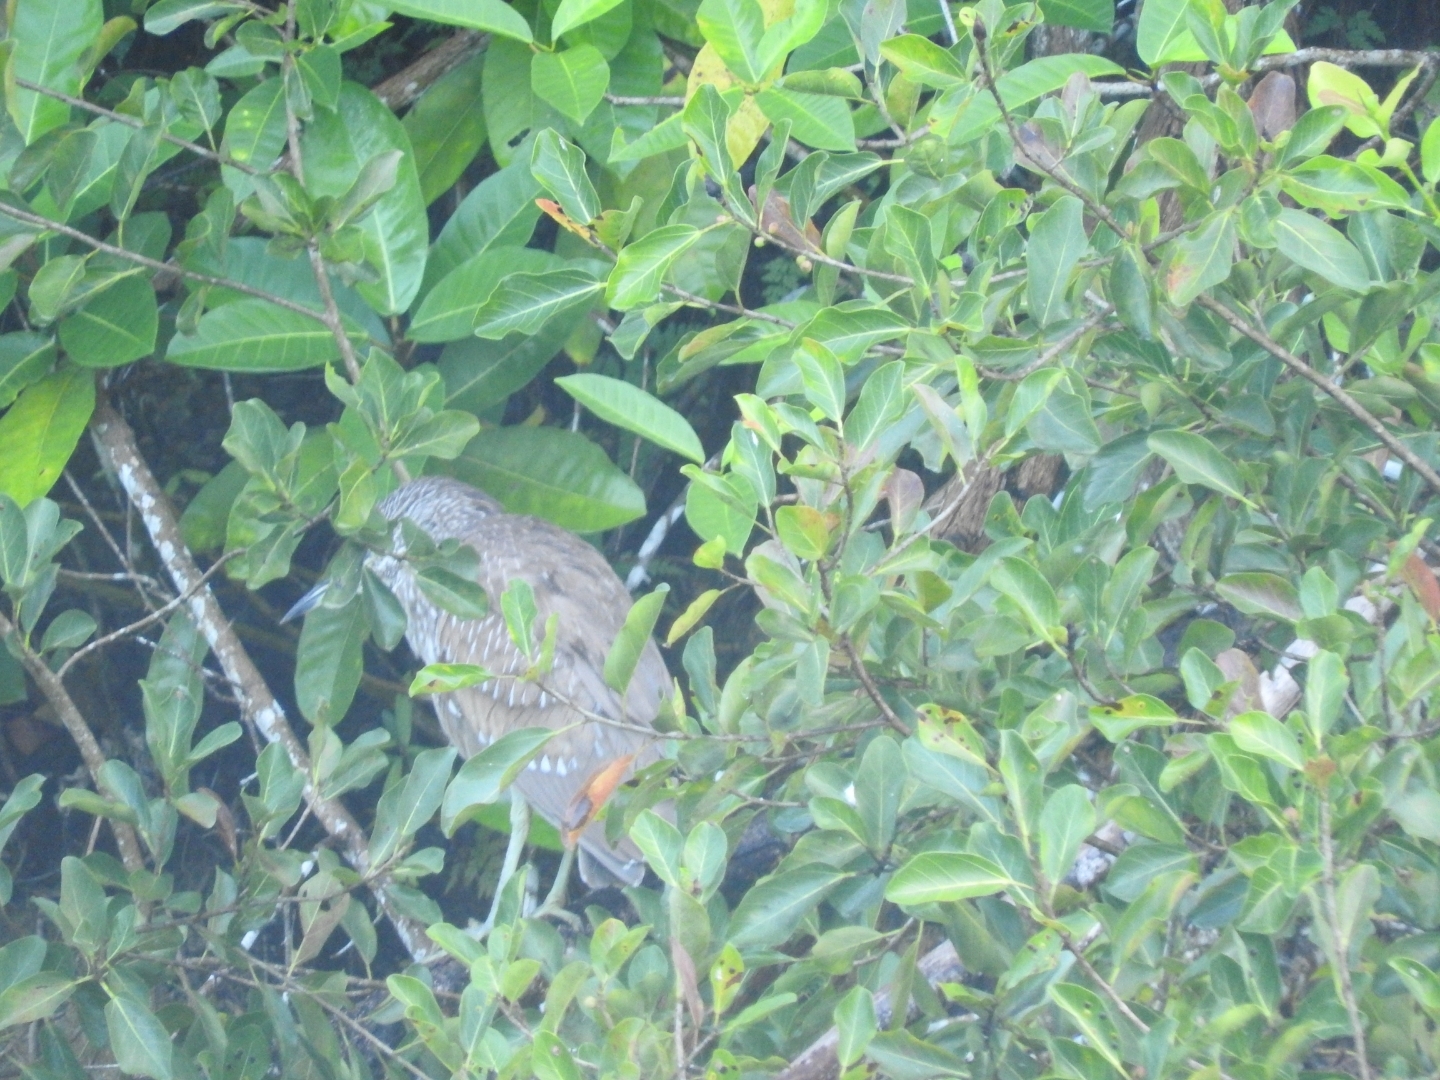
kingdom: Animalia
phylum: Chordata
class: Aves
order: Pelecaniformes
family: Ardeidae
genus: Nycticorax
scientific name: Nycticorax nycticorax
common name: Black-crowned night heron
